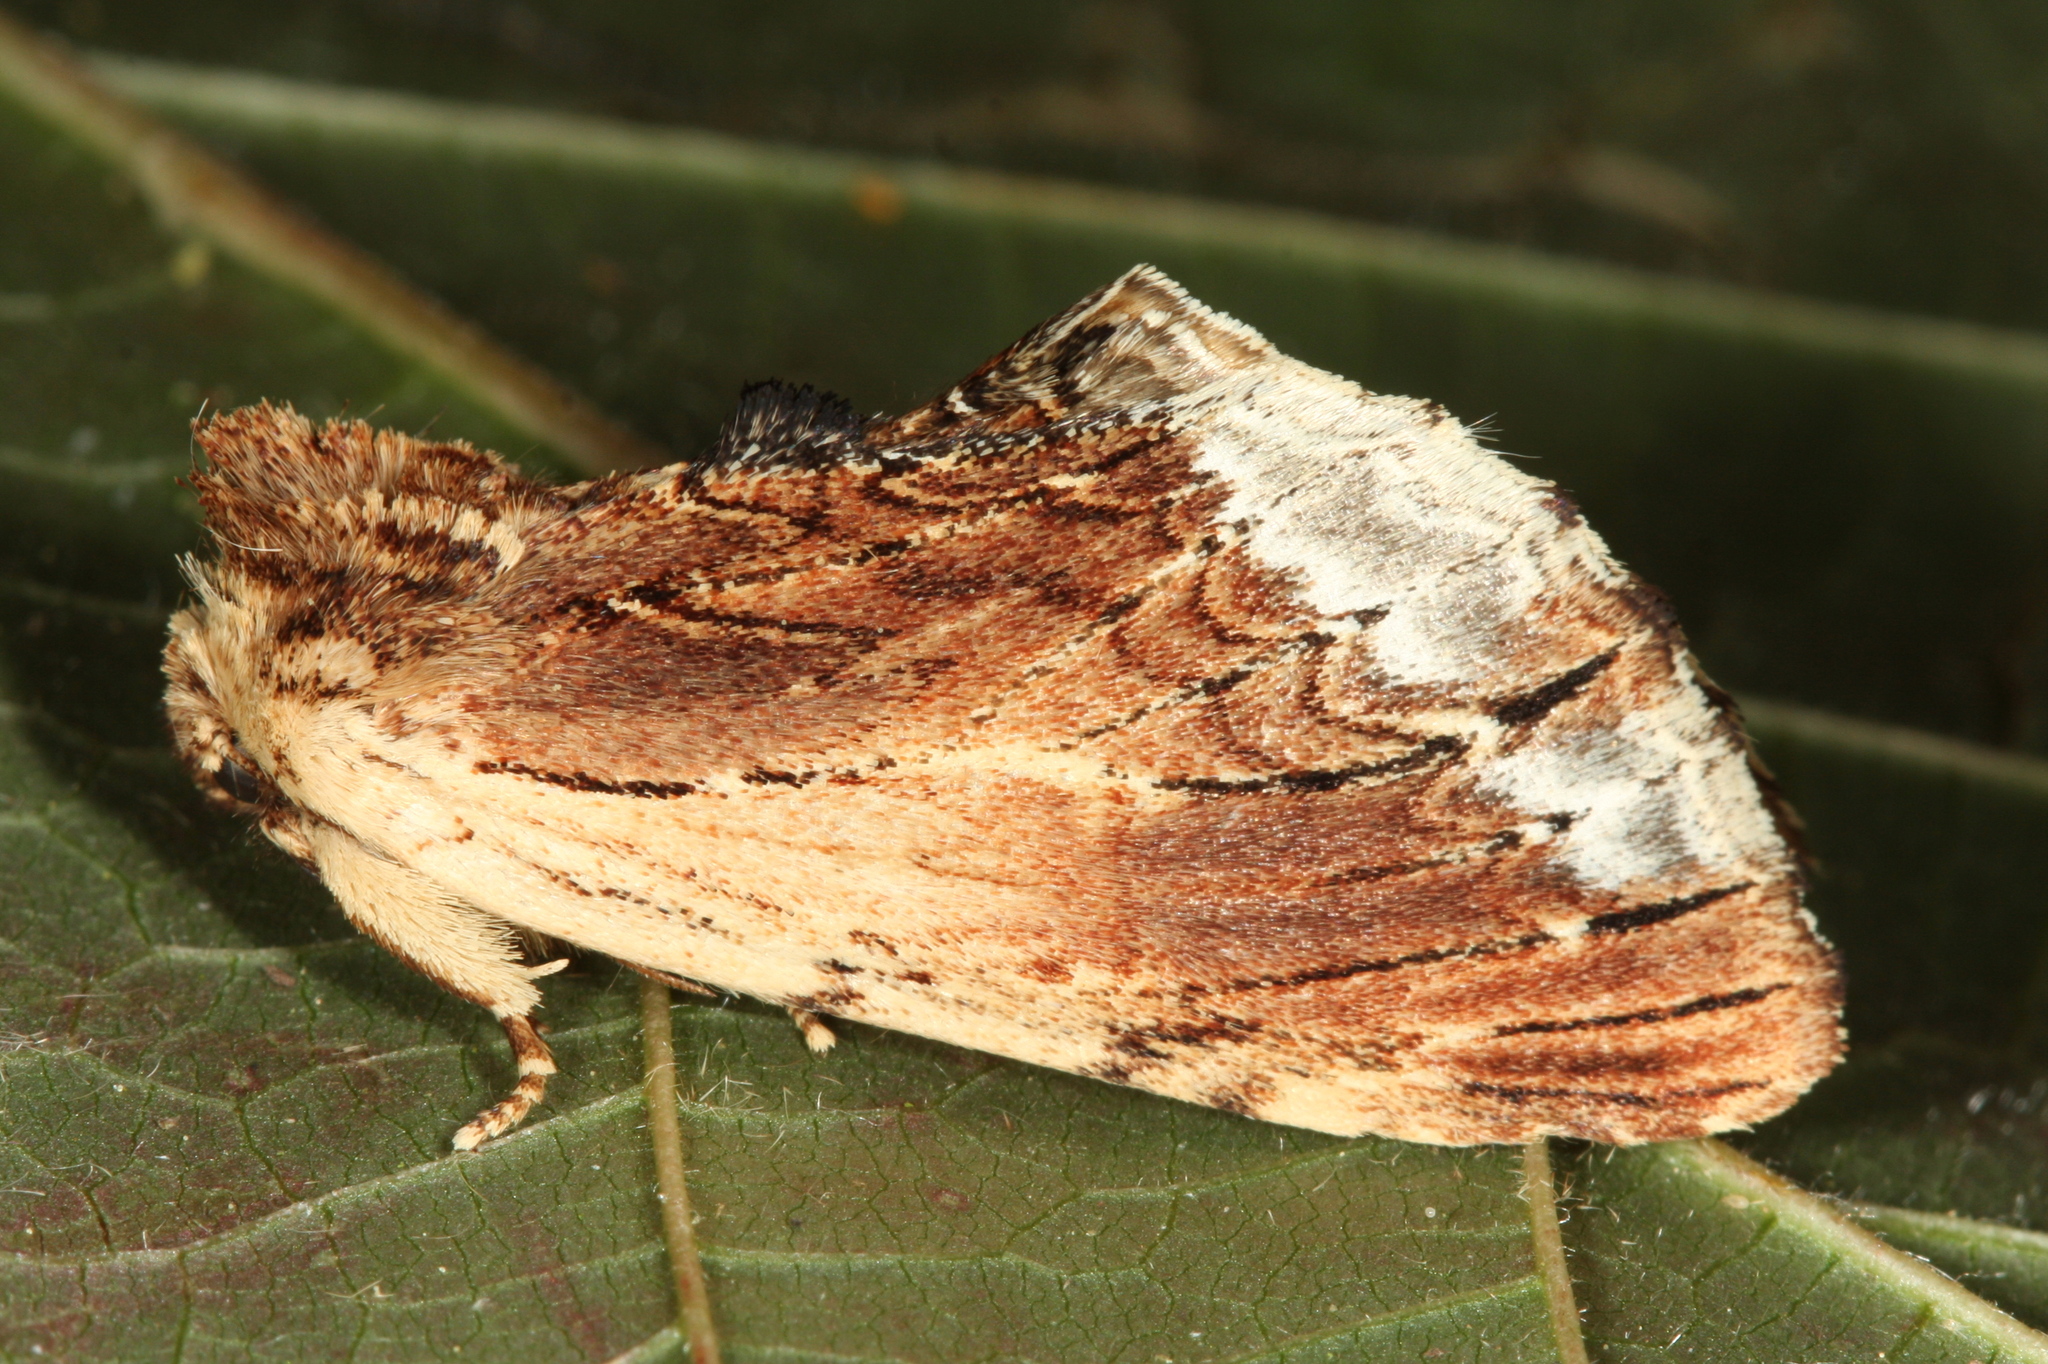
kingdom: Animalia
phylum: Arthropoda
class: Insecta
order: Lepidoptera
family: Notodontidae
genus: Ptilodon
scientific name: Ptilodon cucullina
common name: Maple prominent
